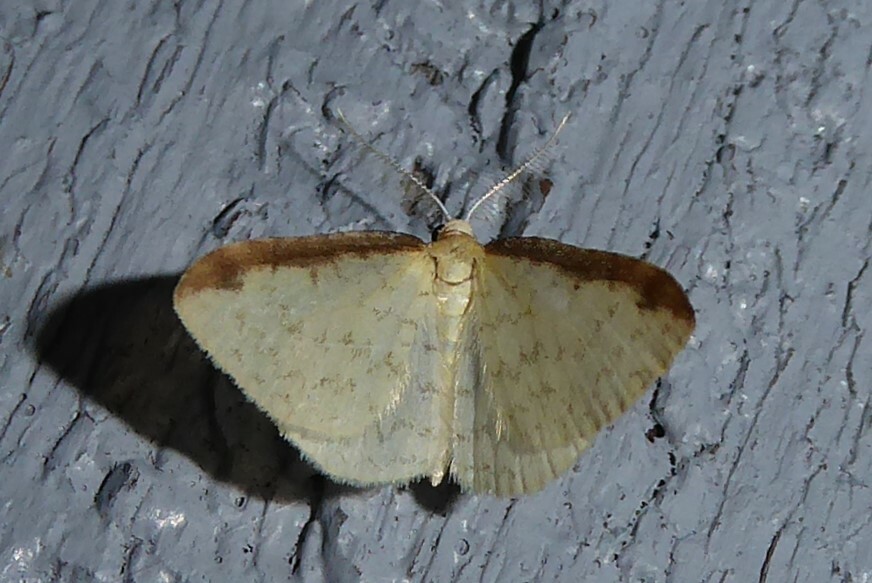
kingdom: Animalia
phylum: Arthropoda
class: Insecta
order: Lepidoptera
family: Geometridae
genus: Epiphryne
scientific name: Epiphryne undosata
